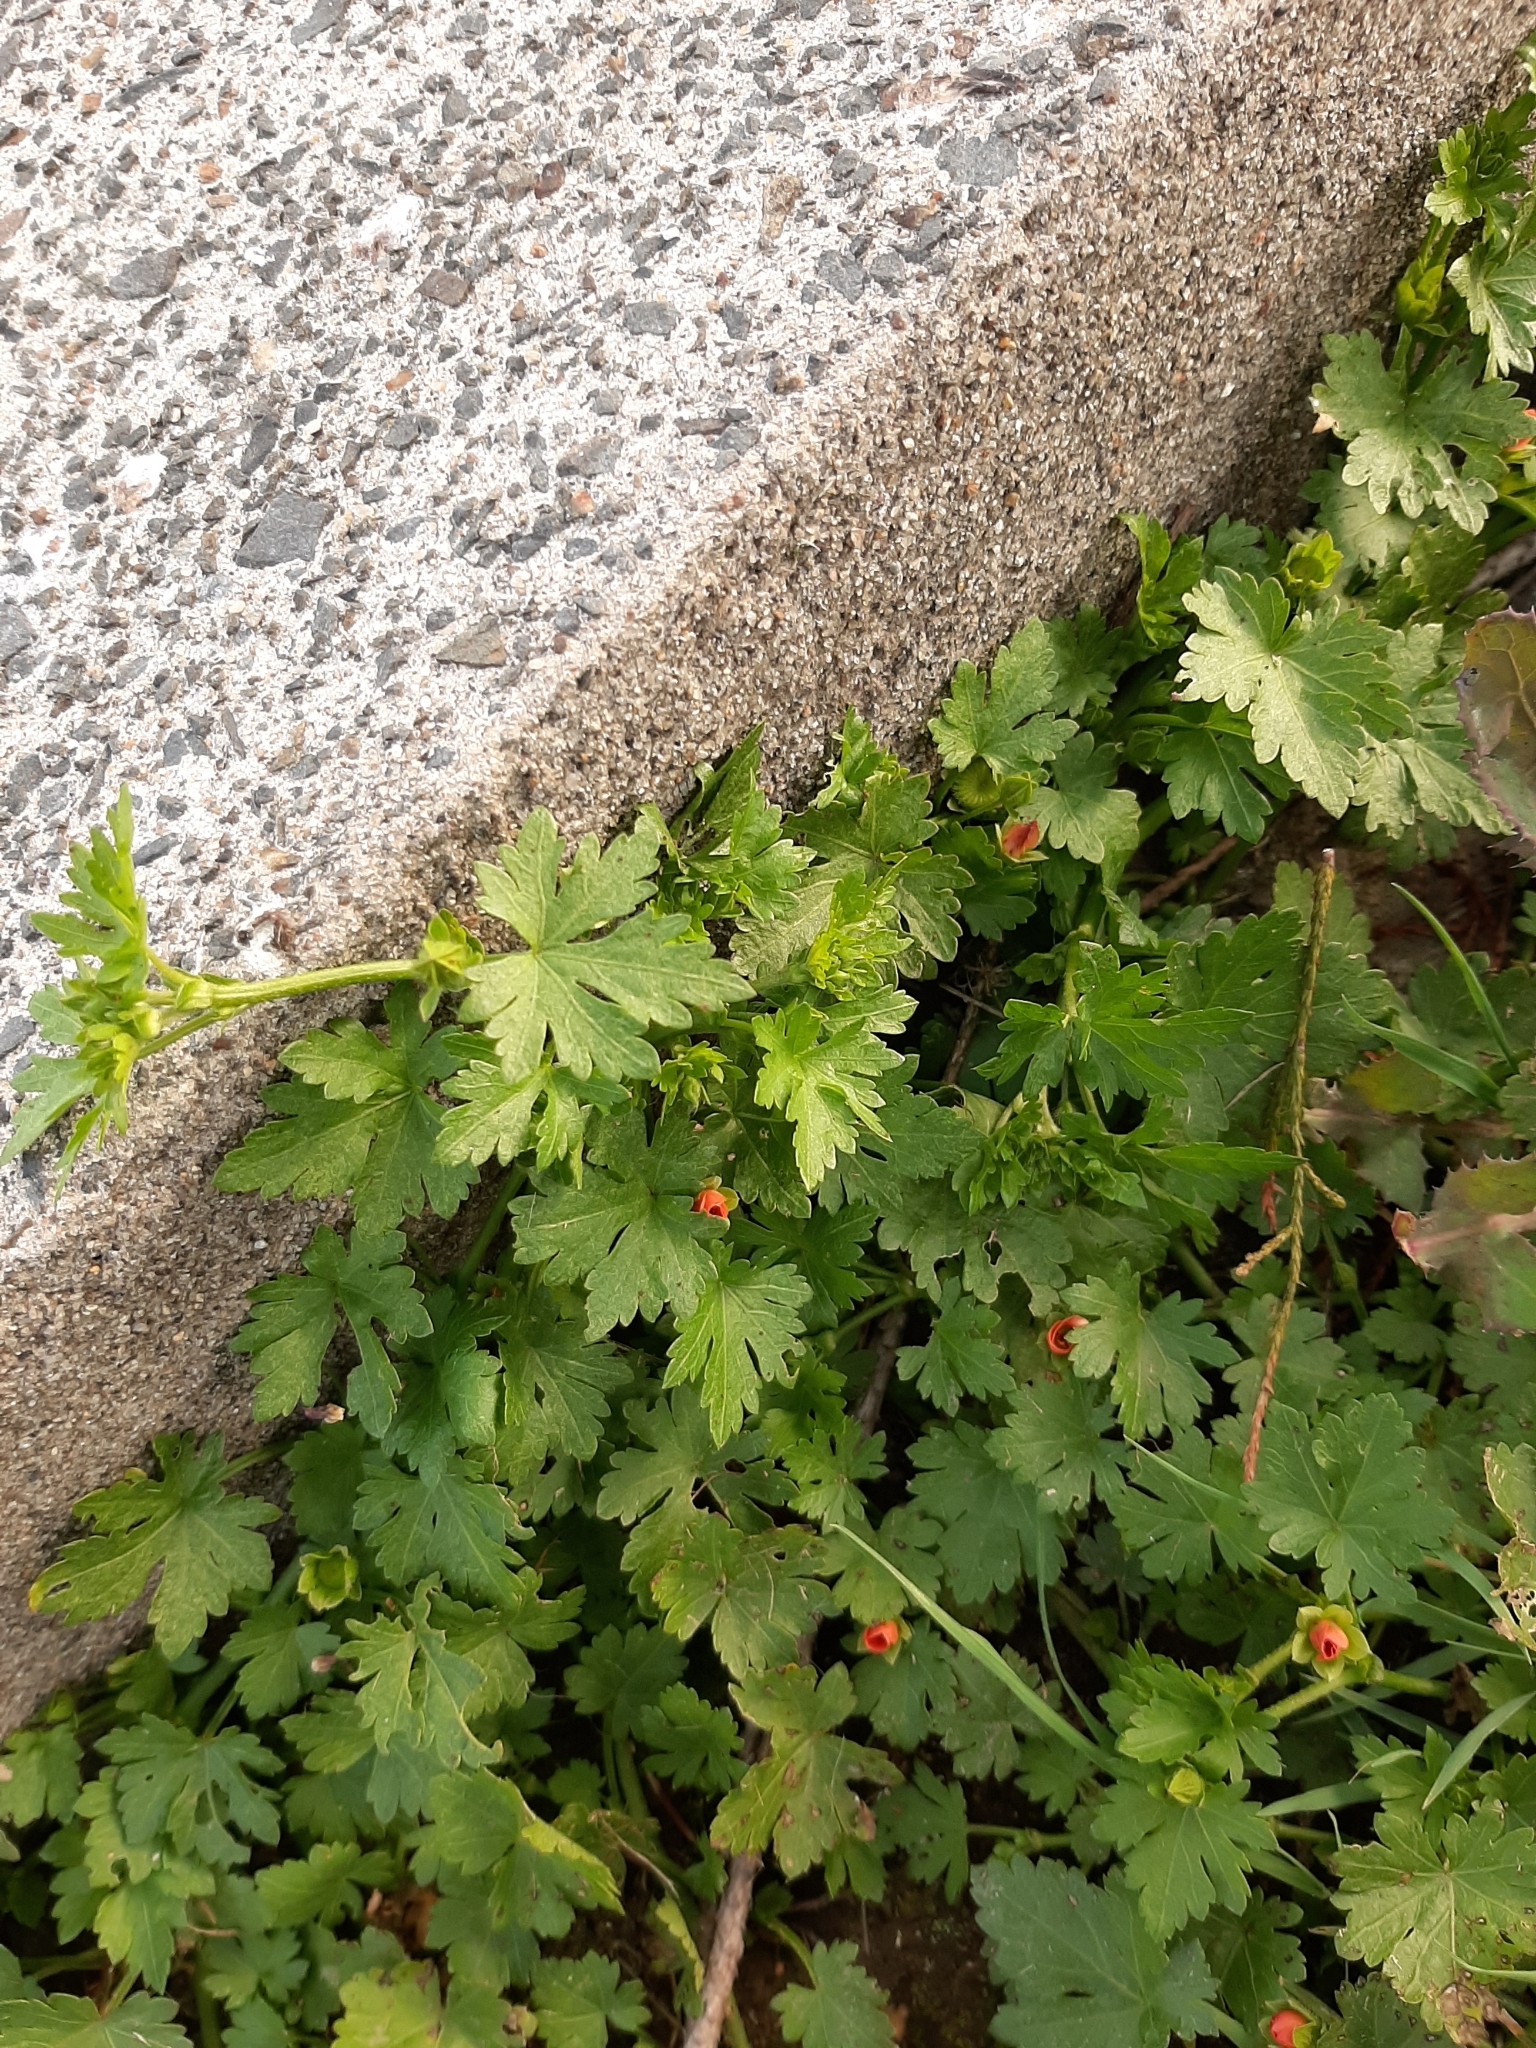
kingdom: Plantae
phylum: Tracheophyta
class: Magnoliopsida
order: Malvales
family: Malvaceae
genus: Modiola
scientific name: Modiola caroliniana
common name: Carolina bristlemallow
